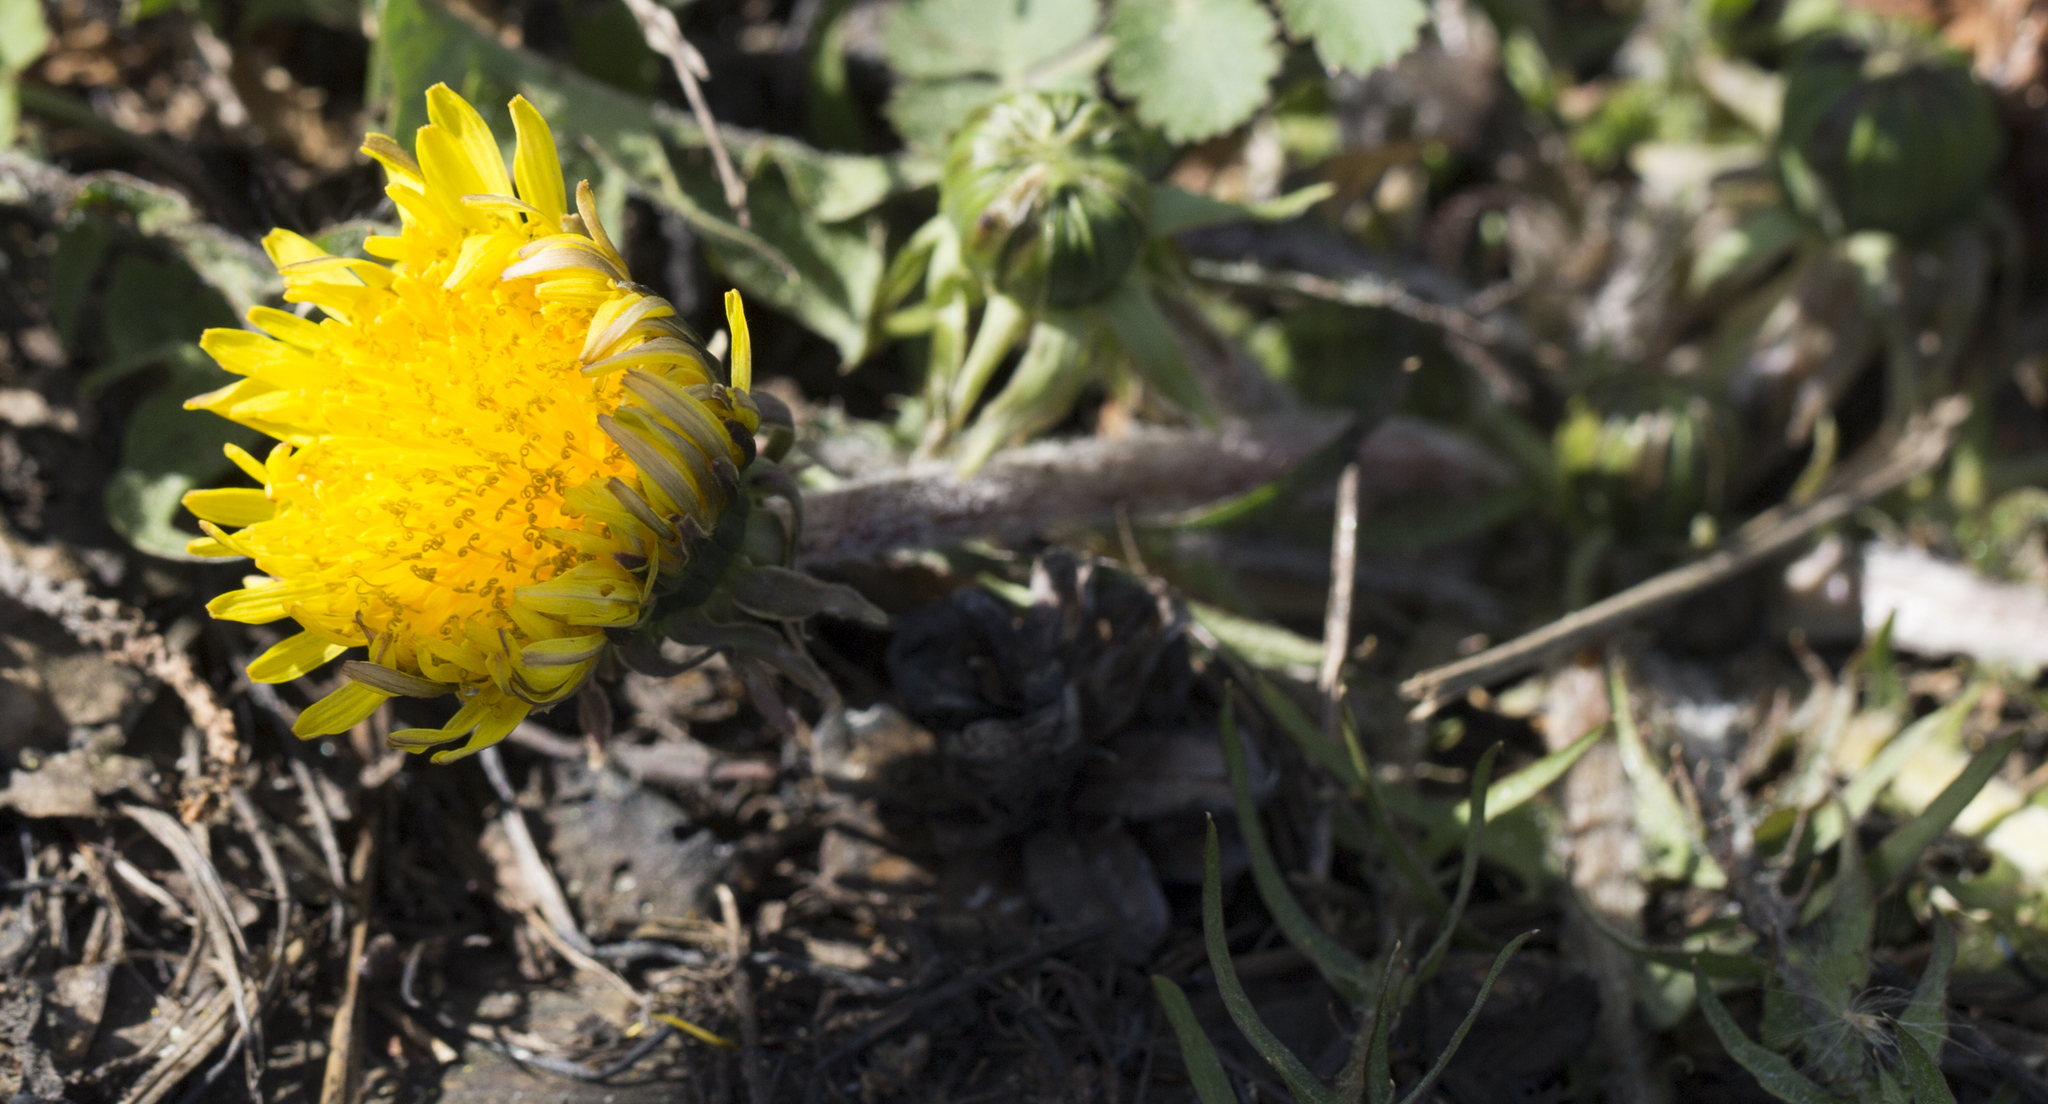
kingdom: Plantae
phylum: Tracheophyta
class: Magnoliopsida
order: Asterales
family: Asteraceae
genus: Taraxacum
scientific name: Taraxacum officinale
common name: Common dandelion
